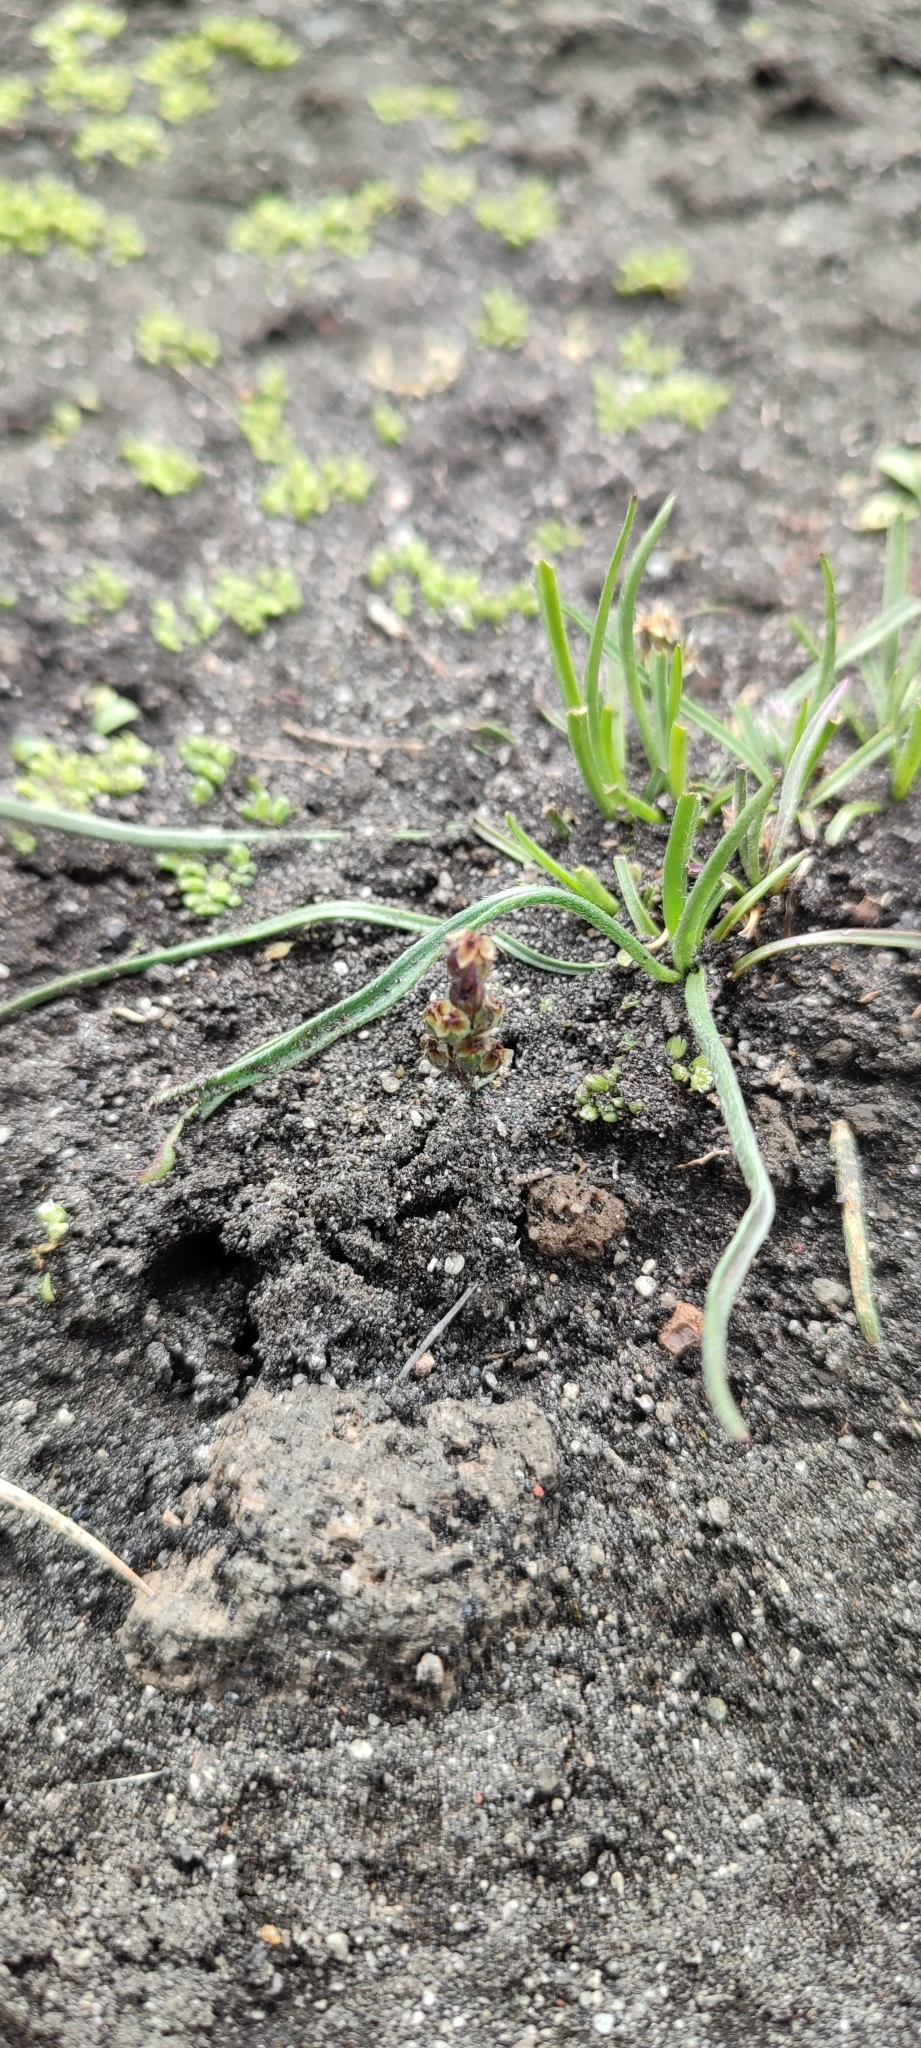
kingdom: Plantae
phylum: Tracheophyta
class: Magnoliopsida
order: Lamiales
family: Plantaginaceae
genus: Plantago
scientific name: Plantago tolucensis
